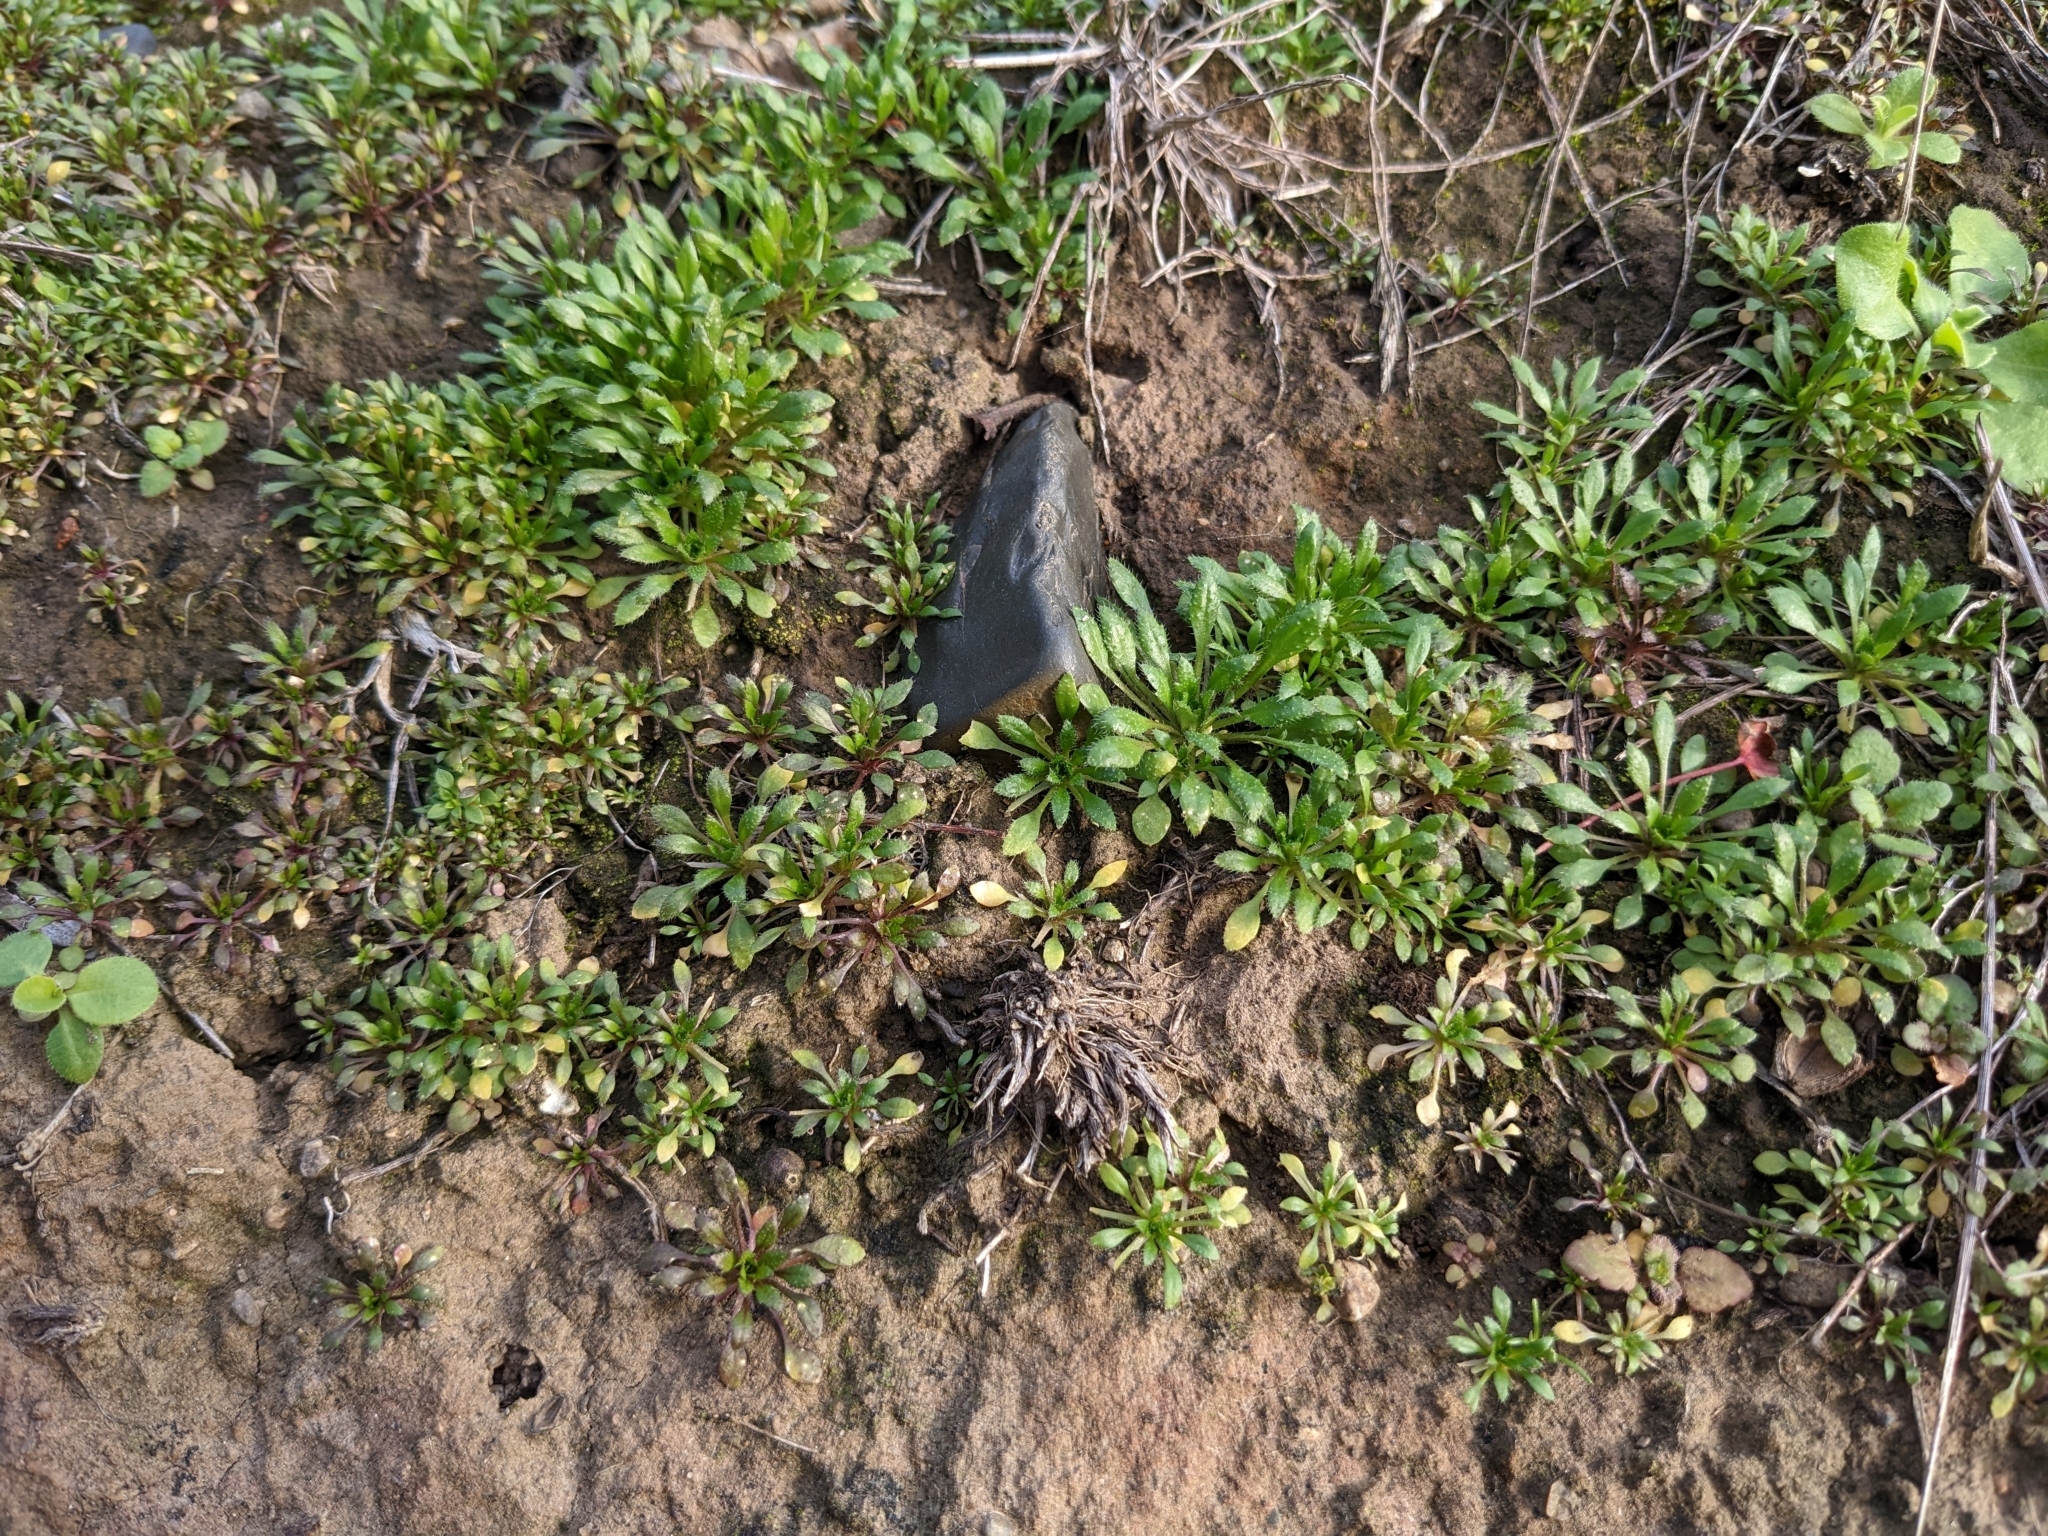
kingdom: Plantae
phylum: Tracheophyta
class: Magnoliopsida
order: Brassicales
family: Brassicaceae
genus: Draba
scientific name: Draba verna
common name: Spring draba
